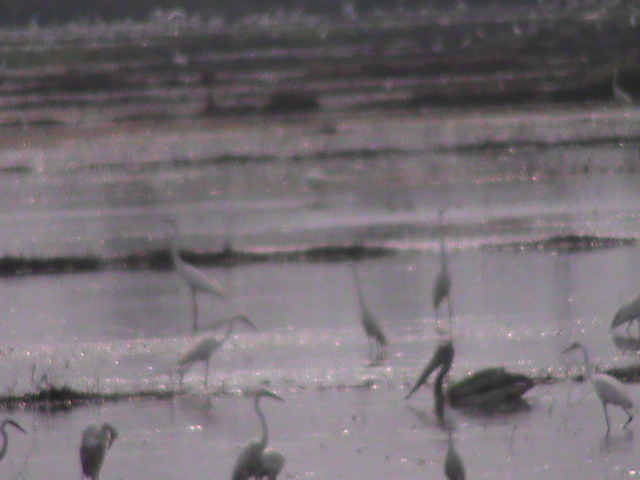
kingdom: Animalia
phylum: Chordata
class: Aves
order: Pelecaniformes
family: Pelecanidae
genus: Pelecanus
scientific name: Pelecanus philippensis
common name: Spot-billed pelican
